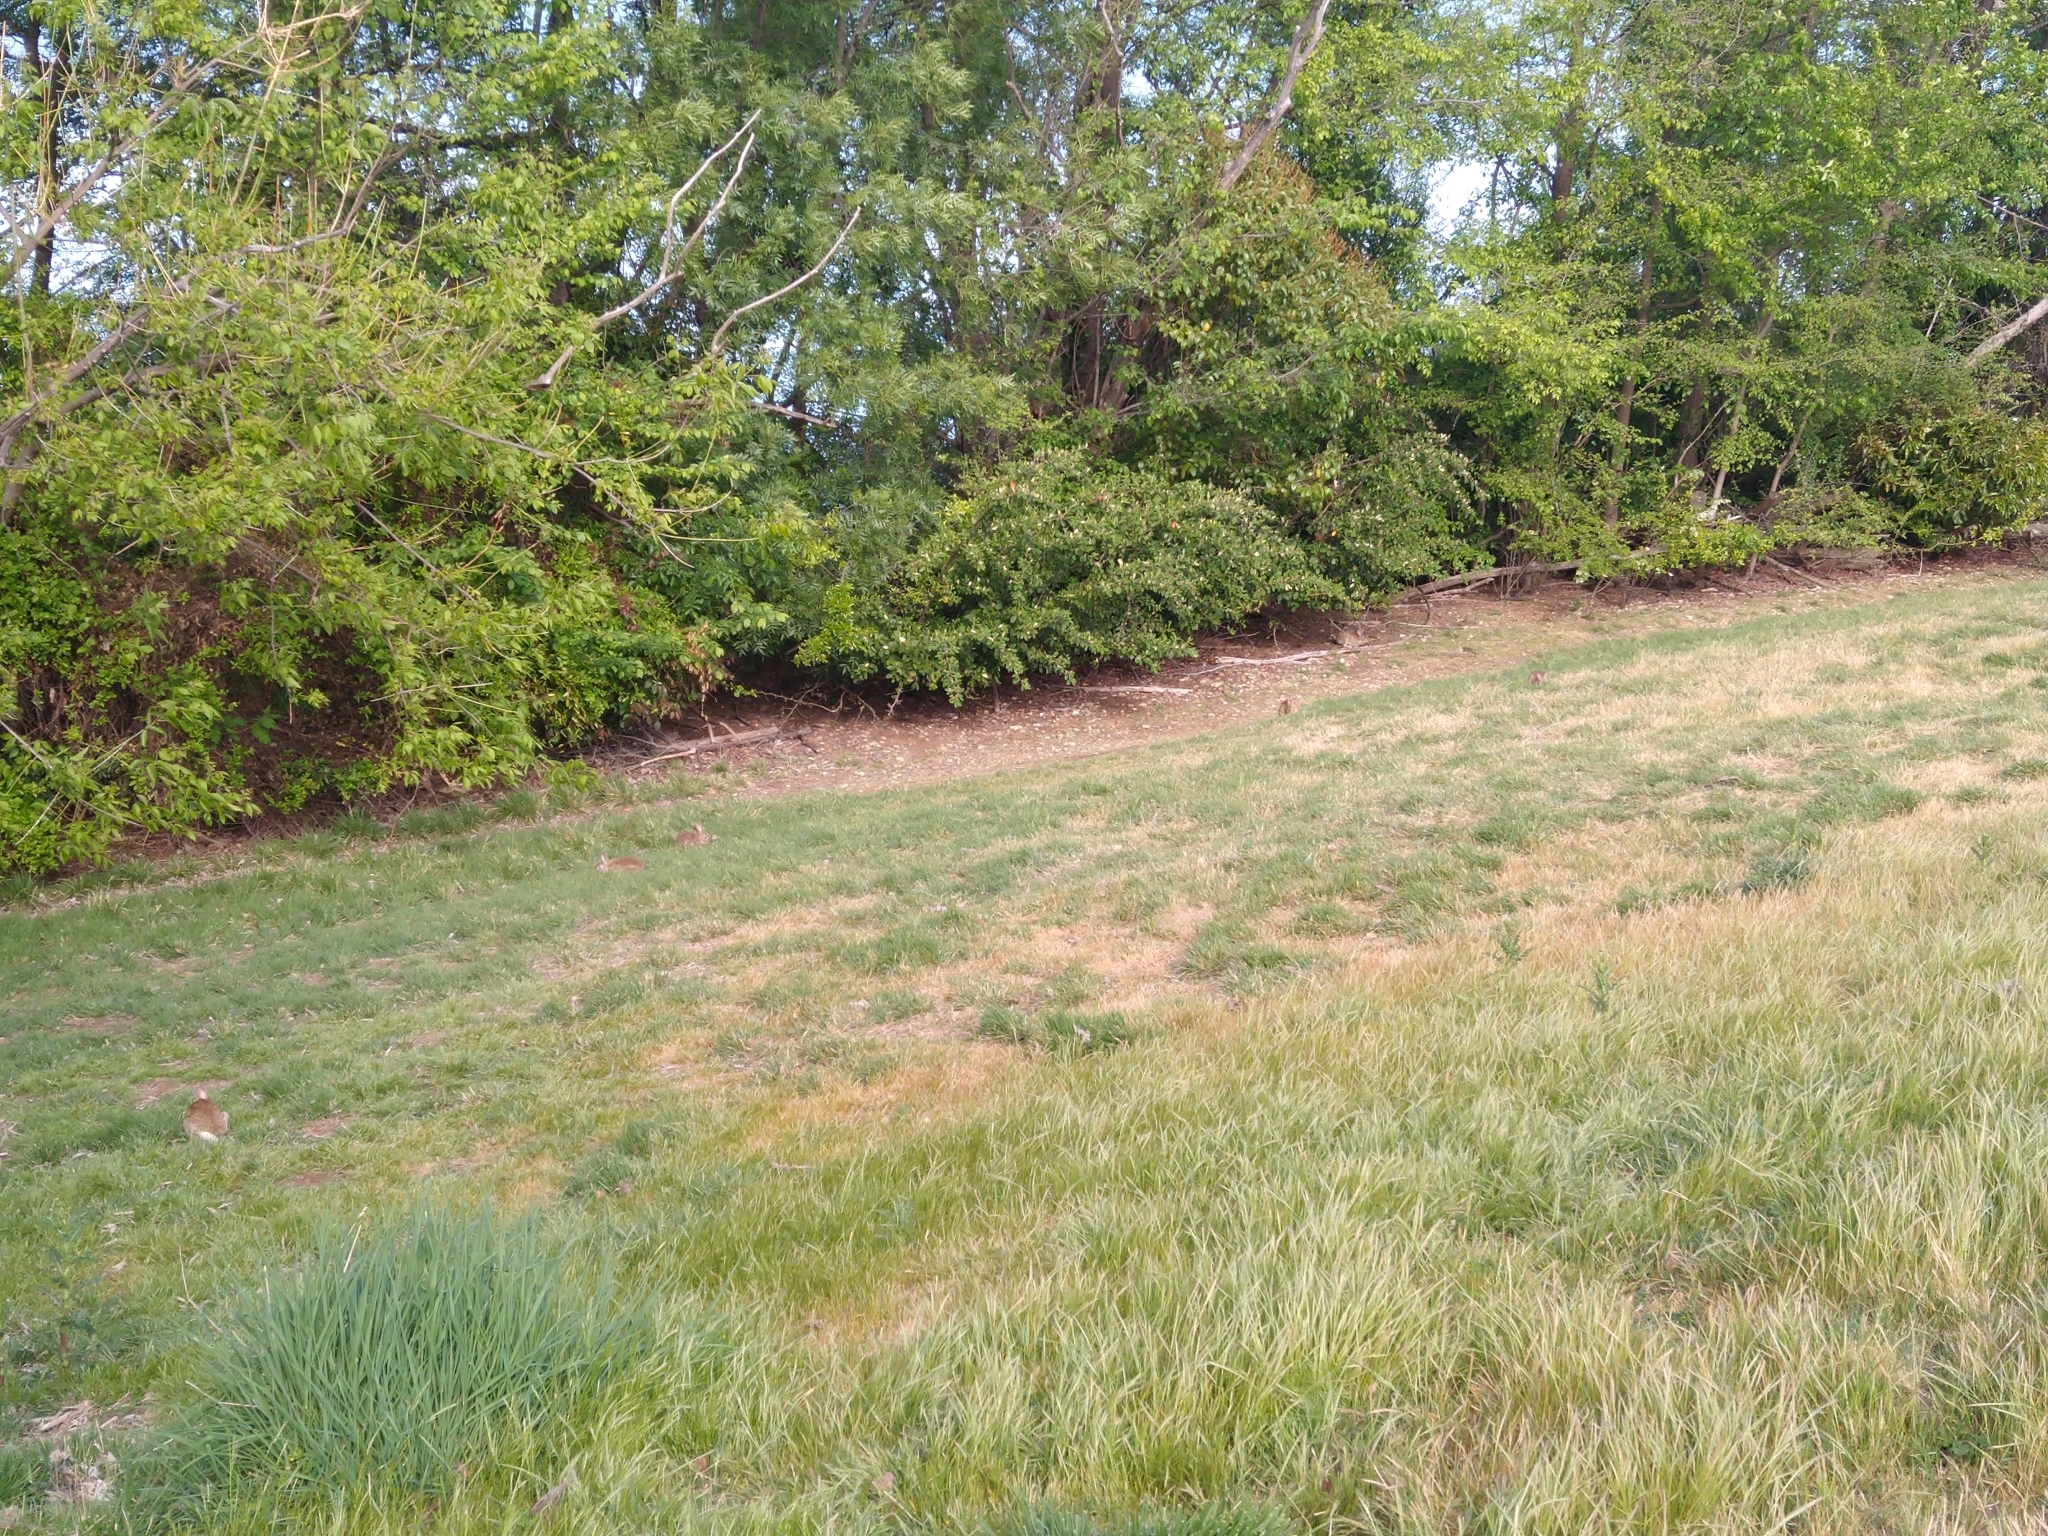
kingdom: Animalia
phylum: Chordata
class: Mammalia
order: Lagomorpha
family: Leporidae
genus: Oryctolagus
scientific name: Oryctolagus cuniculus
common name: European rabbit
